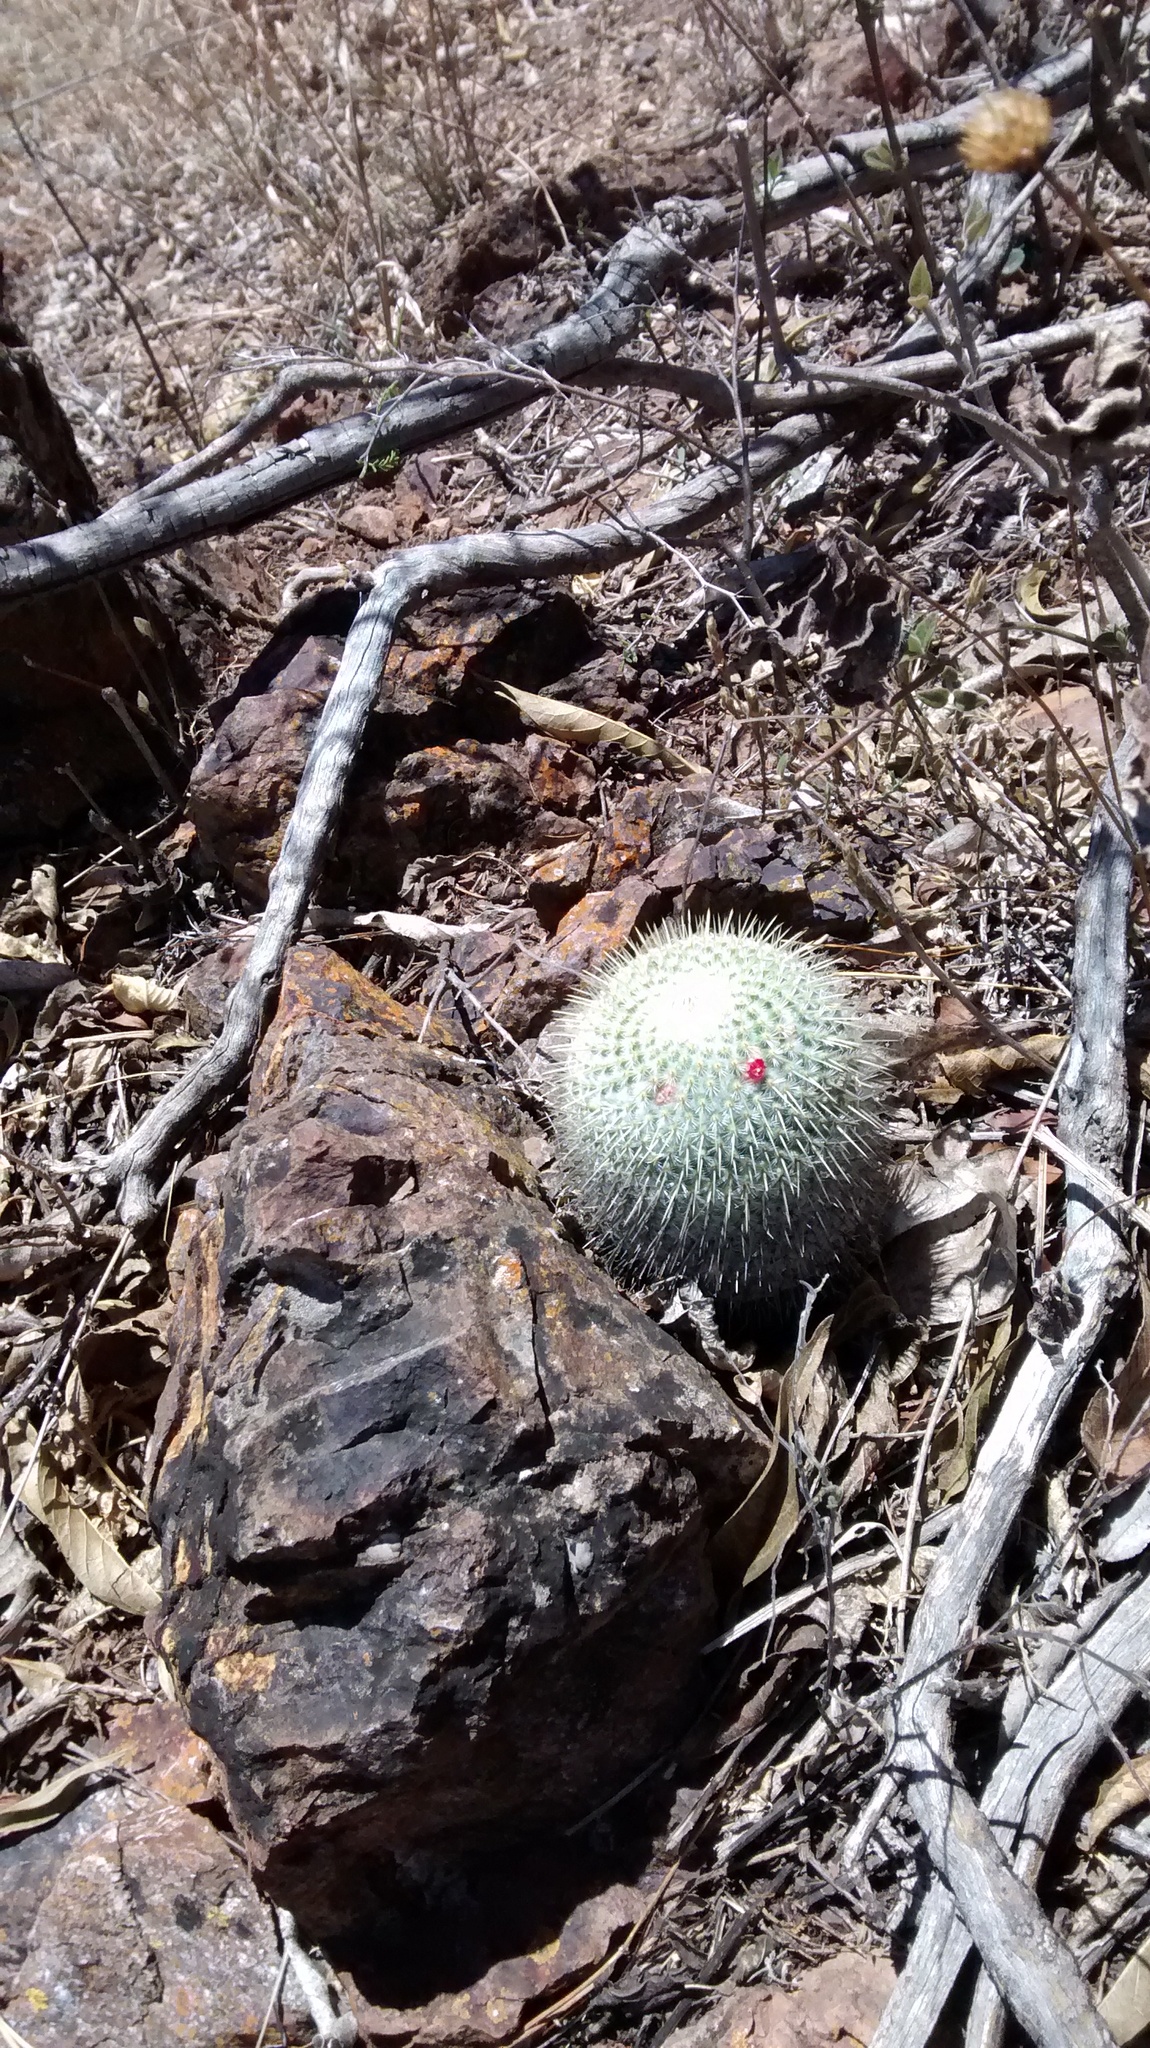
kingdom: Plantae
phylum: Tracheophyta
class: Magnoliopsida
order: Caryophyllales
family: Cactaceae
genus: Mammillaria
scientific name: Mammillaria albilanata
